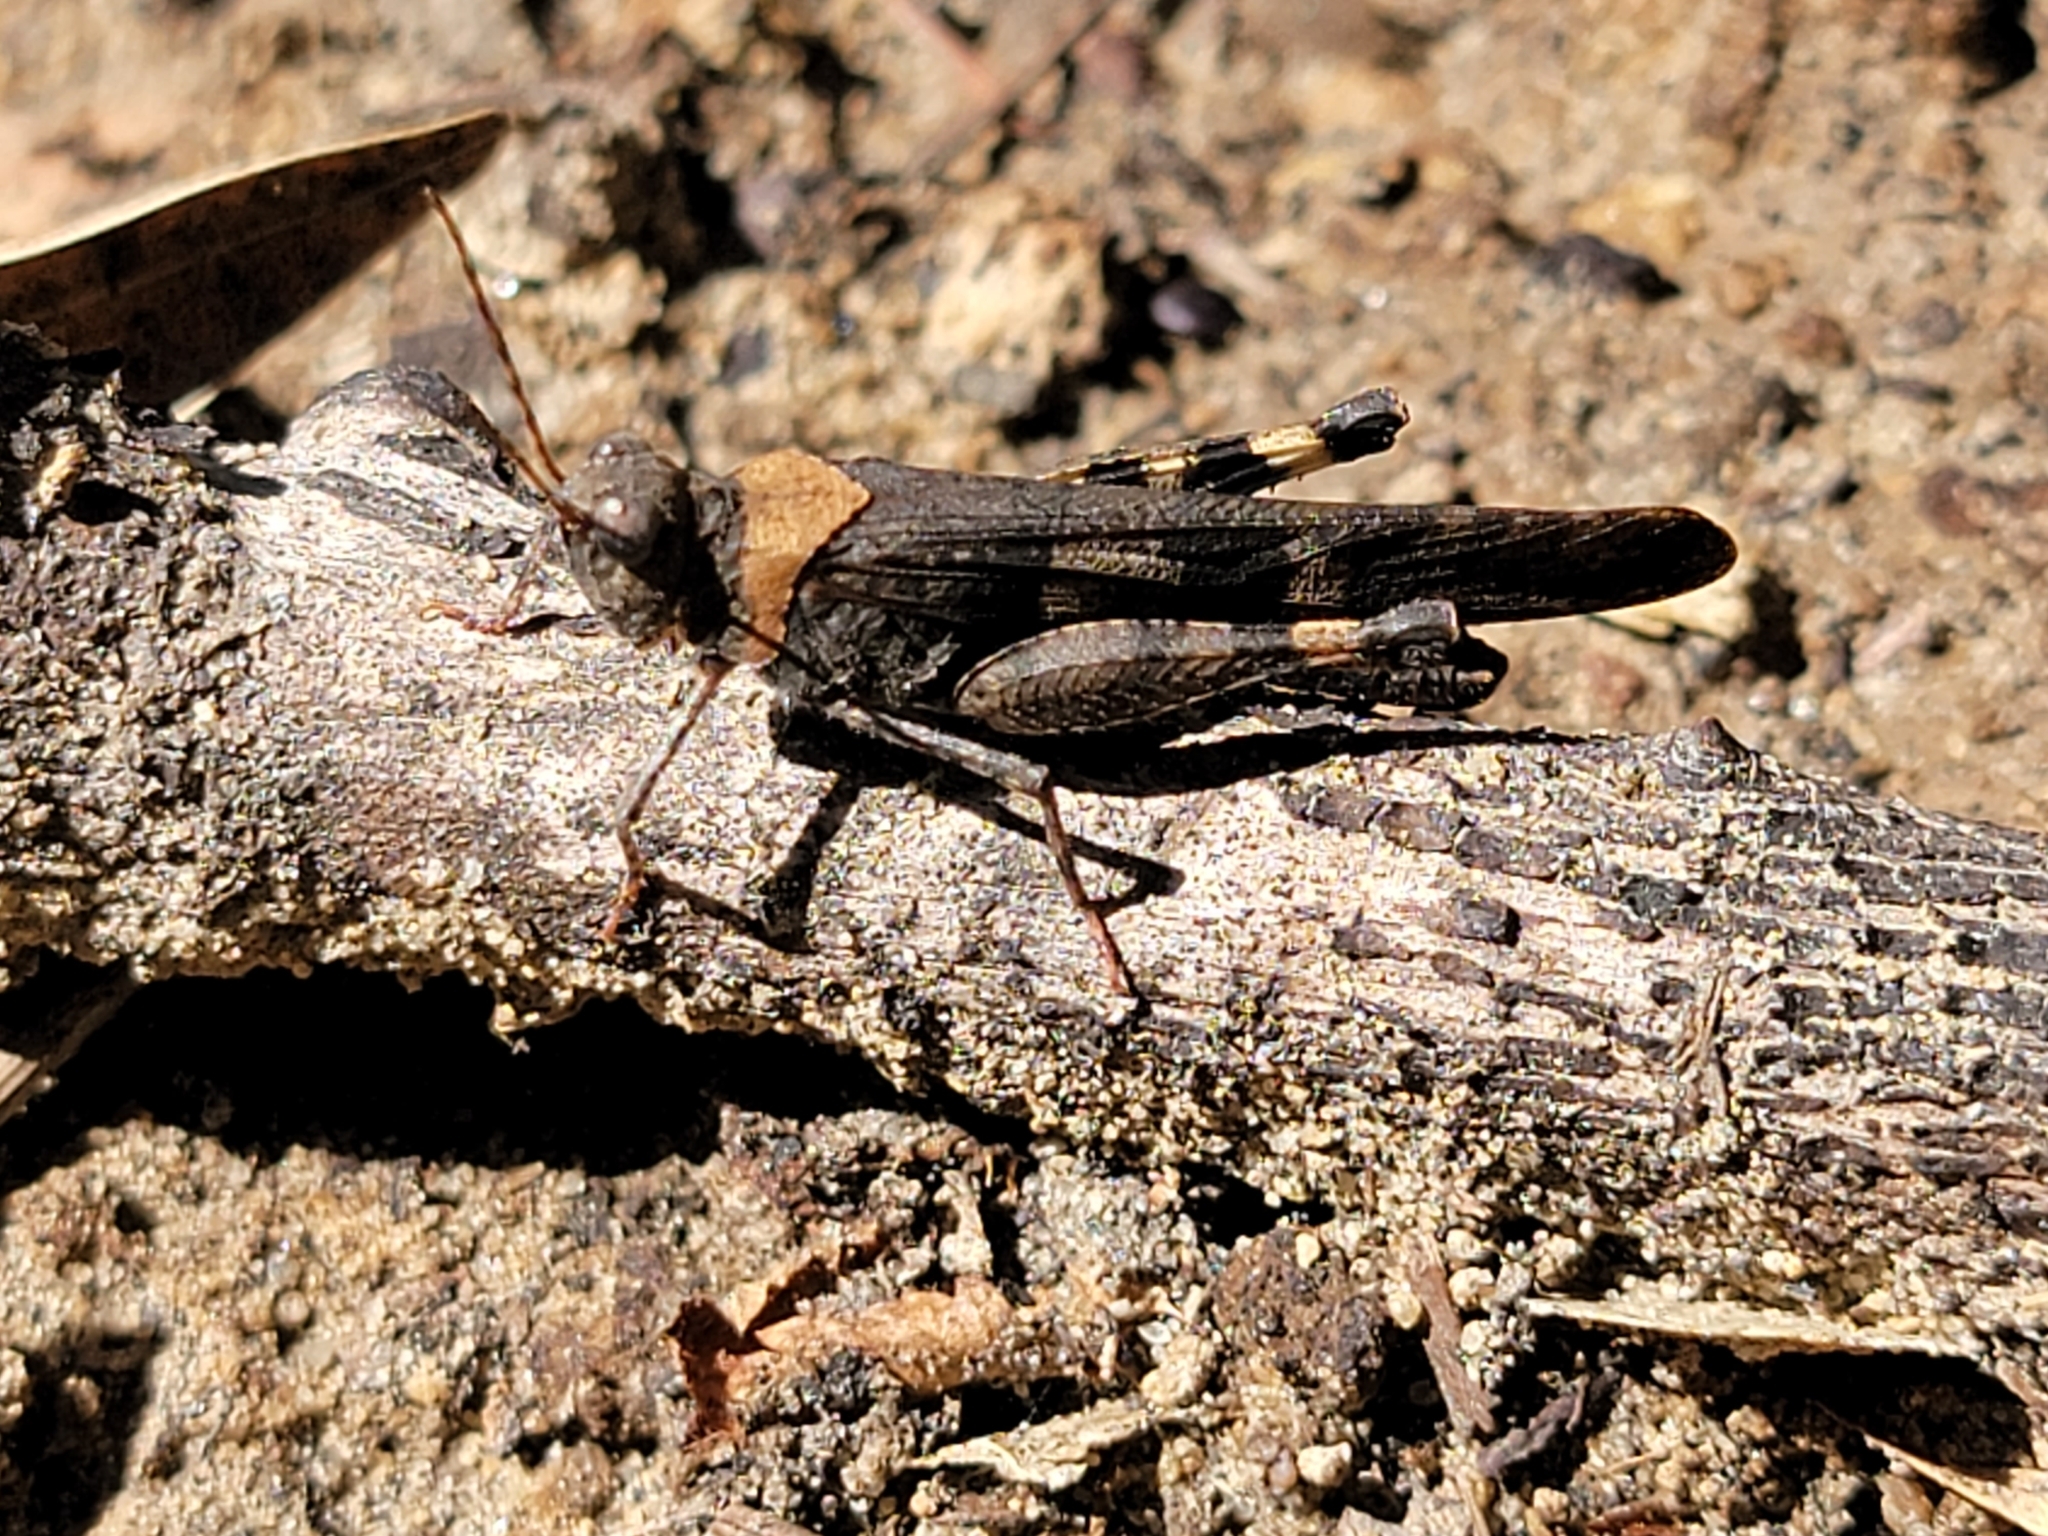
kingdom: Animalia
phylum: Arthropoda
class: Insecta
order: Orthoptera
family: Acrididae
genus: Trimerotropis
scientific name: Trimerotropis fontana
